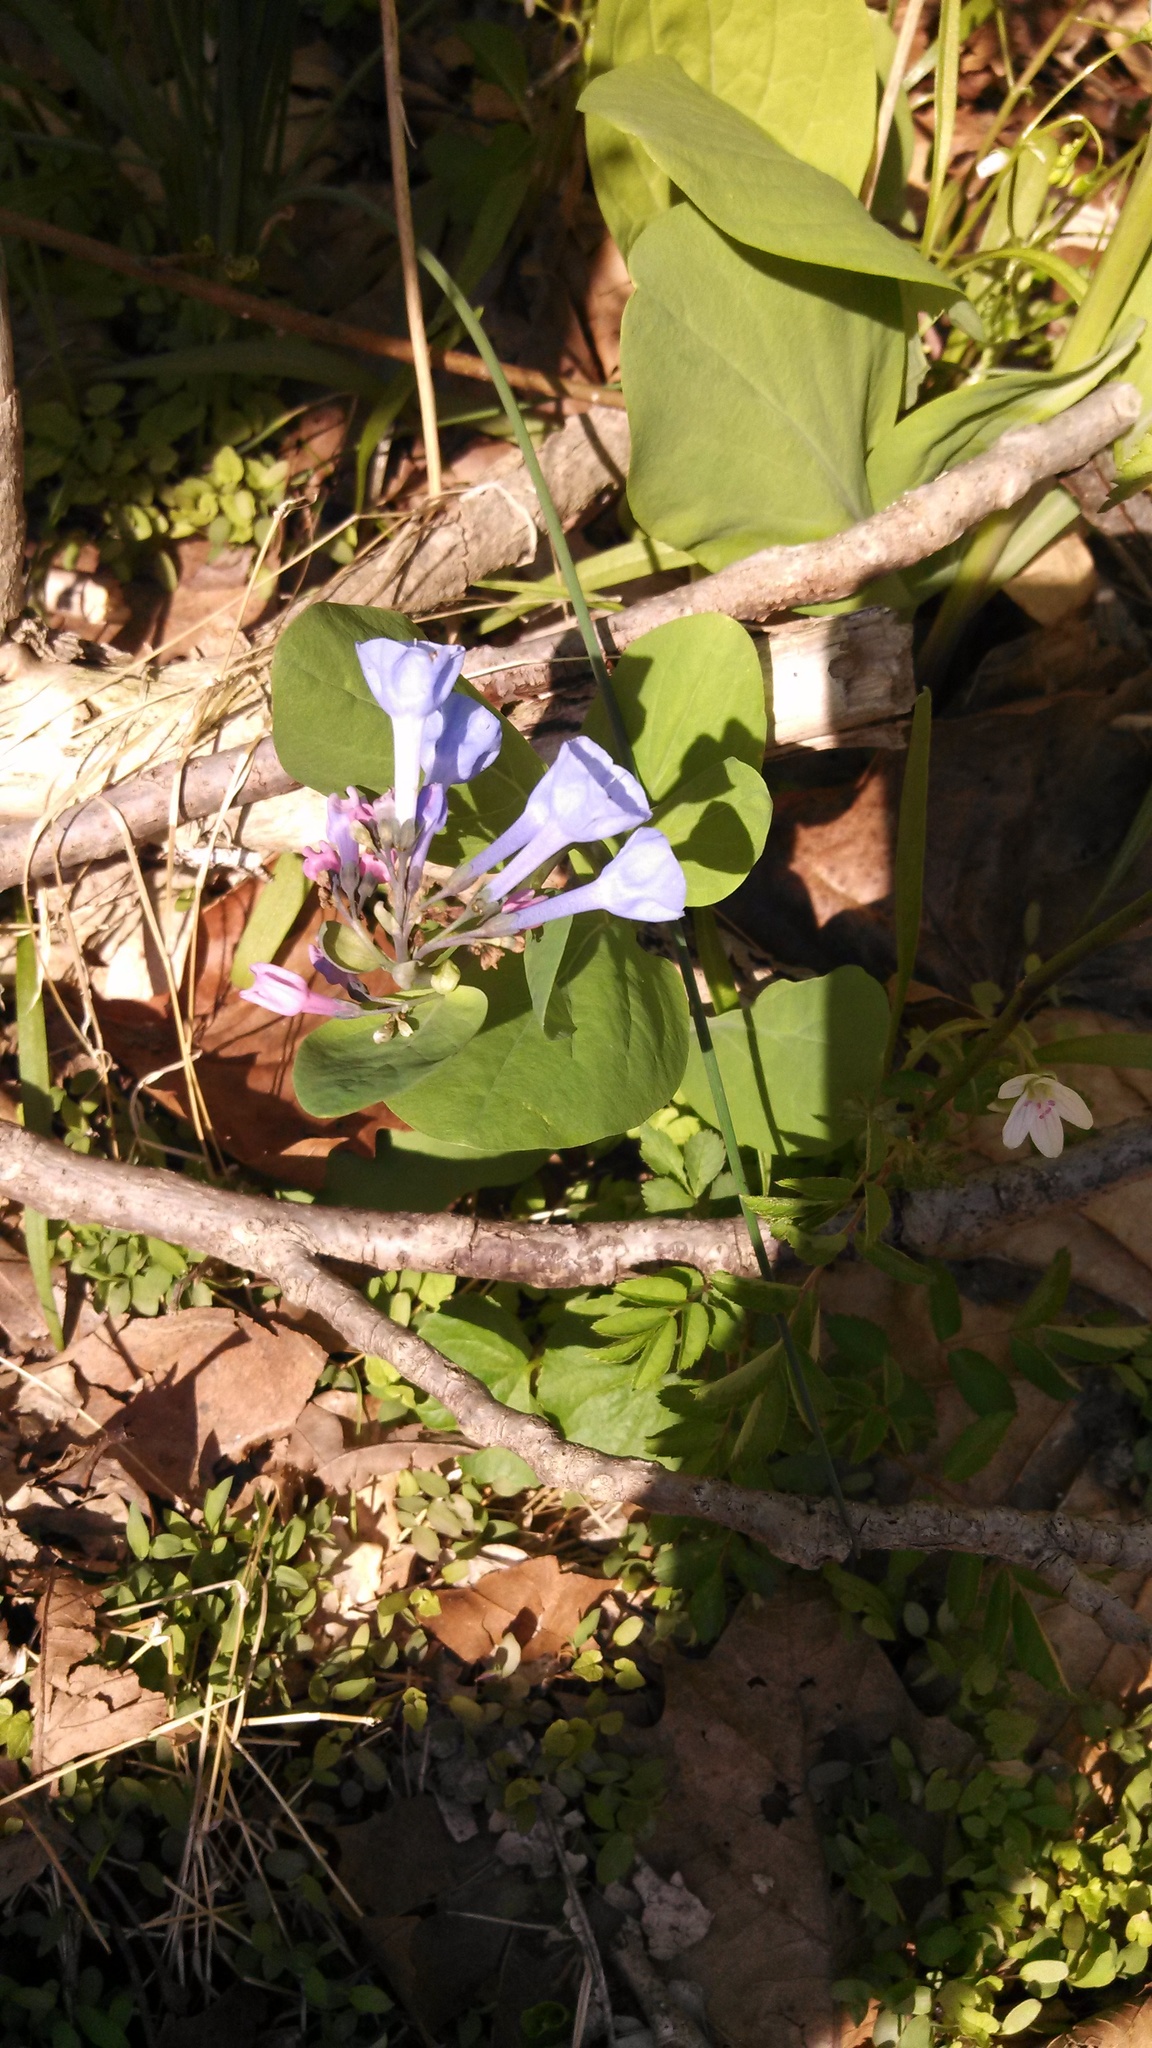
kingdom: Plantae
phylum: Tracheophyta
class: Magnoliopsida
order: Boraginales
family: Boraginaceae
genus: Mertensia
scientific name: Mertensia virginica
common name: Virginia bluebells
